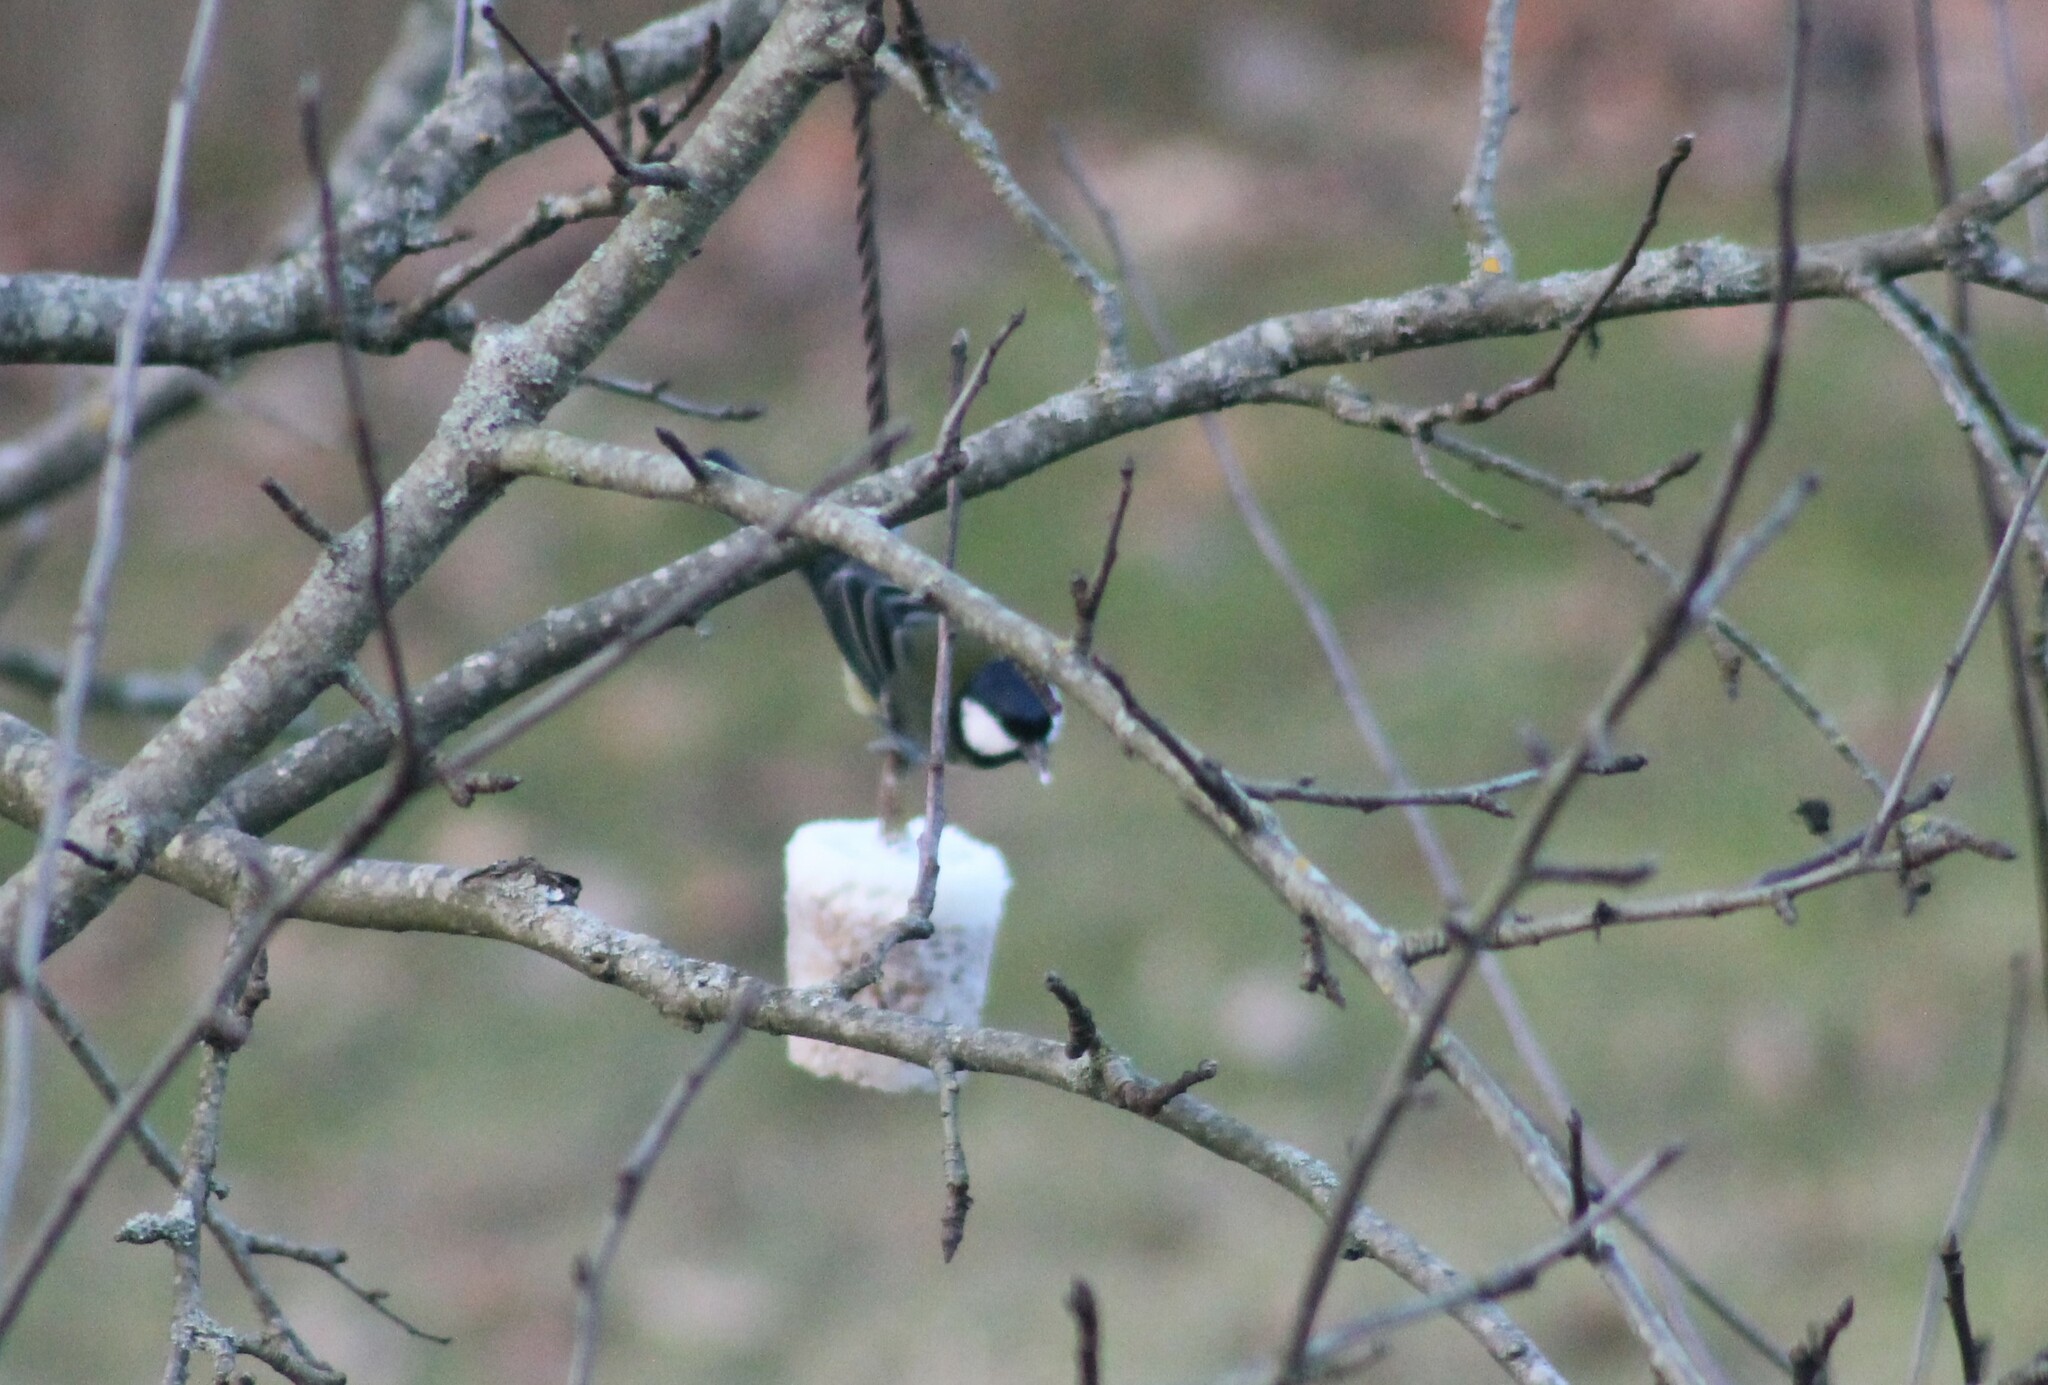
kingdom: Animalia
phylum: Chordata
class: Aves
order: Passeriformes
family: Paridae
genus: Parus
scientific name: Parus major
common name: Great tit
